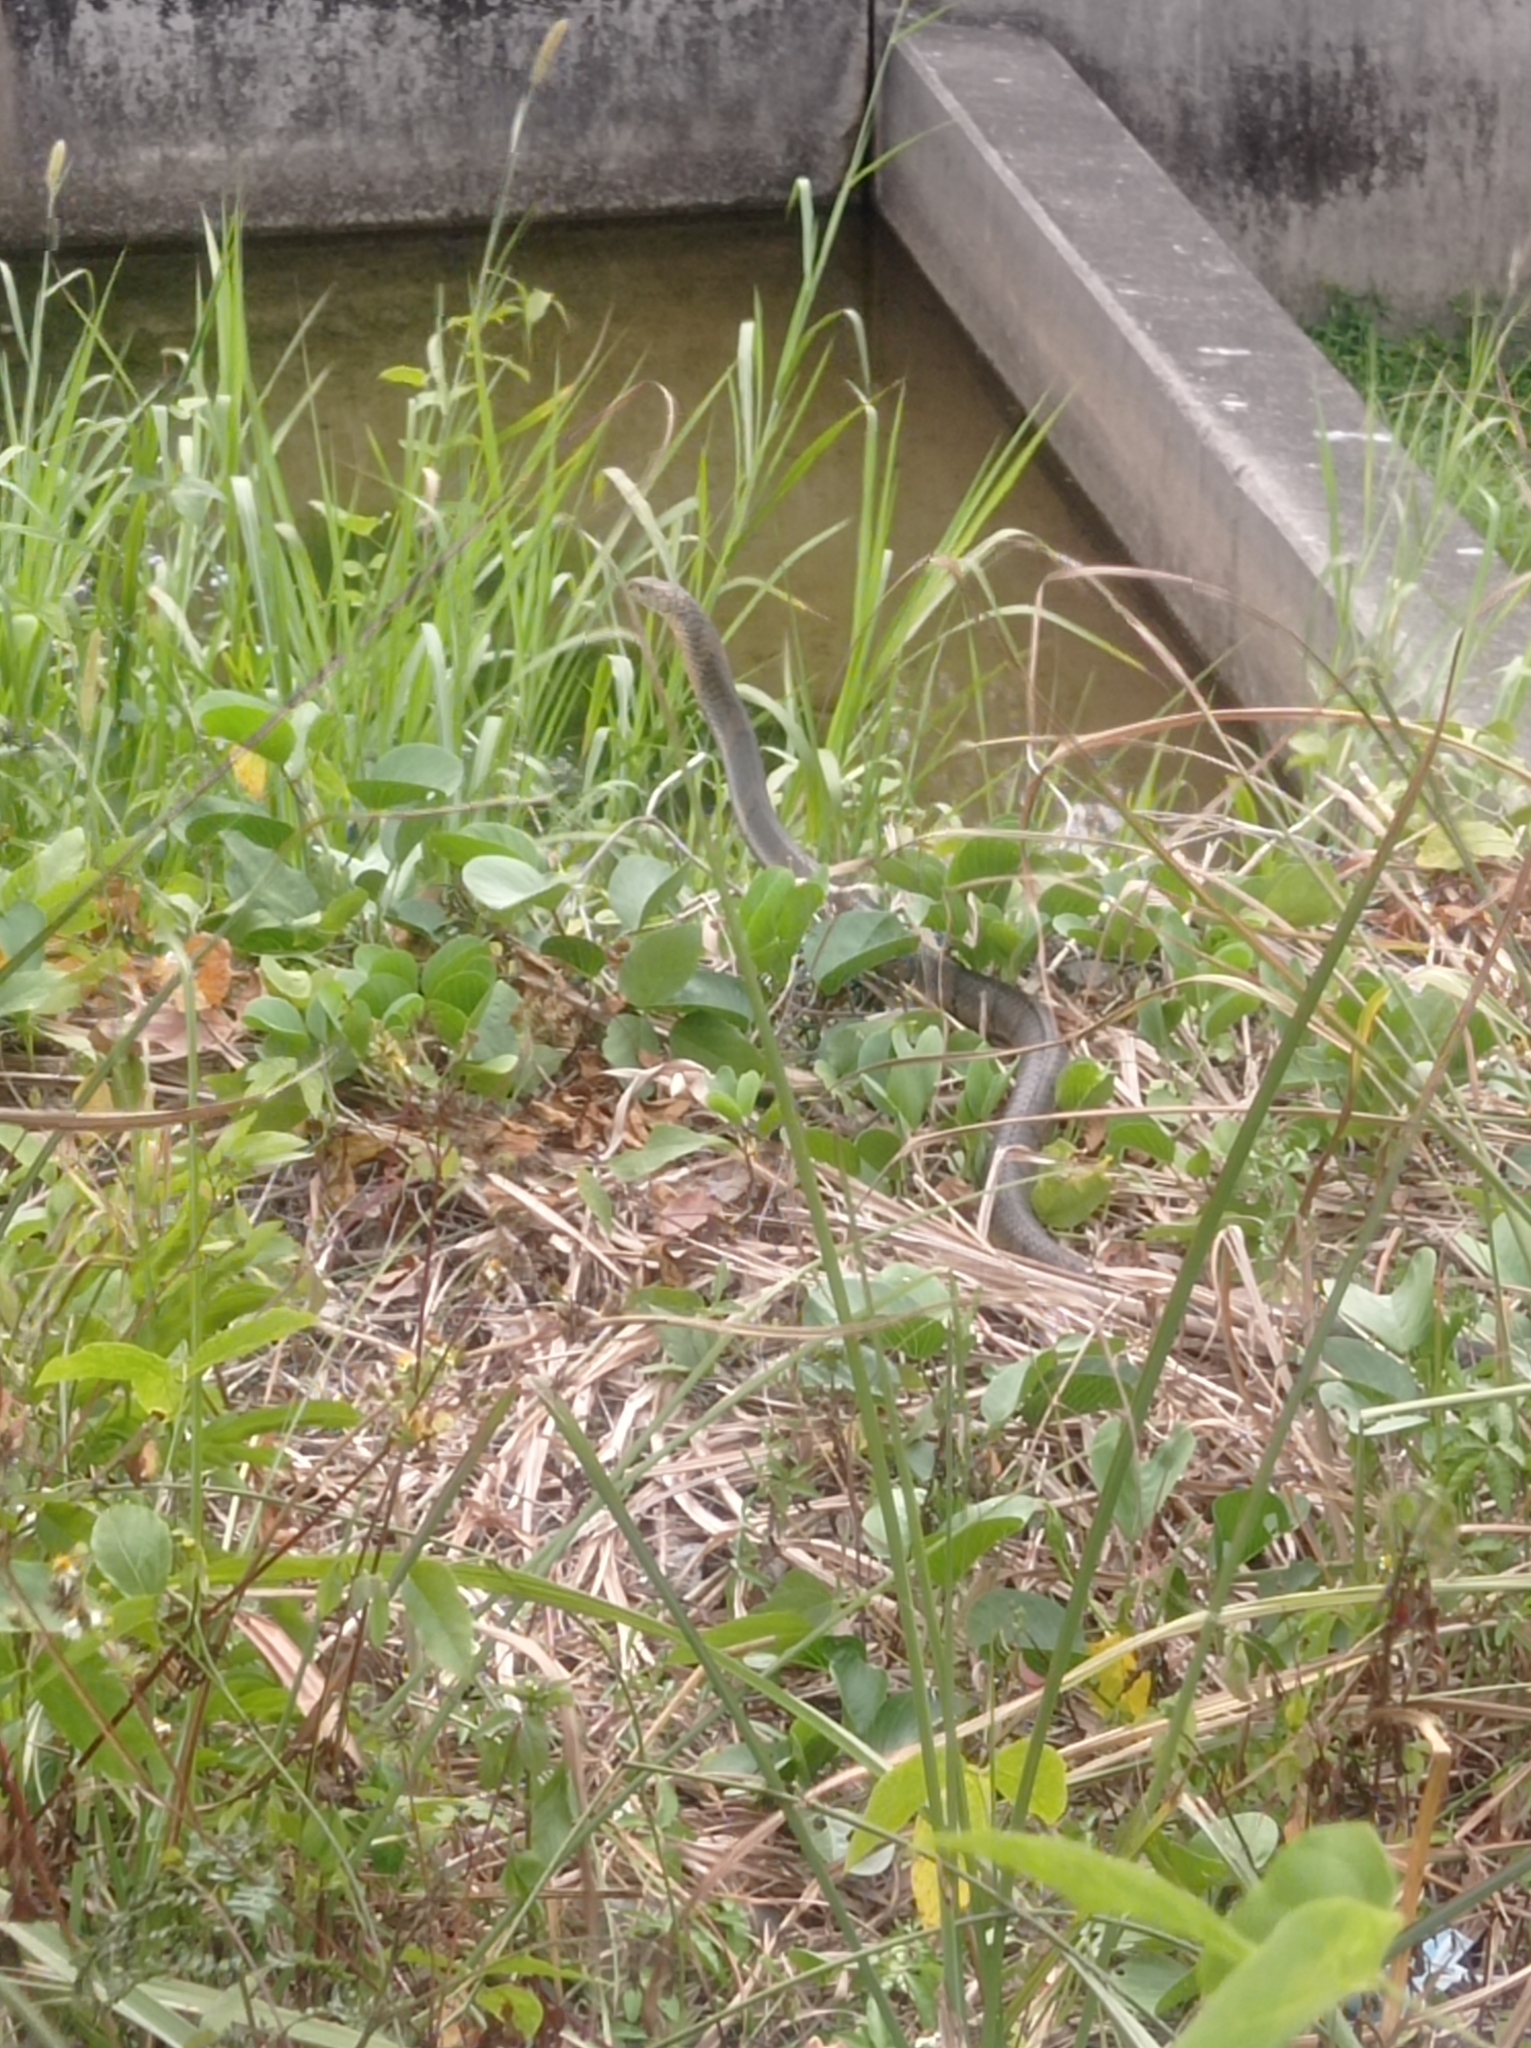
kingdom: Animalia
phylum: Chordata
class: Squamata
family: Elapidae
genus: Ophiophagus
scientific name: Ophiophagus hannah
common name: Hamadryad
